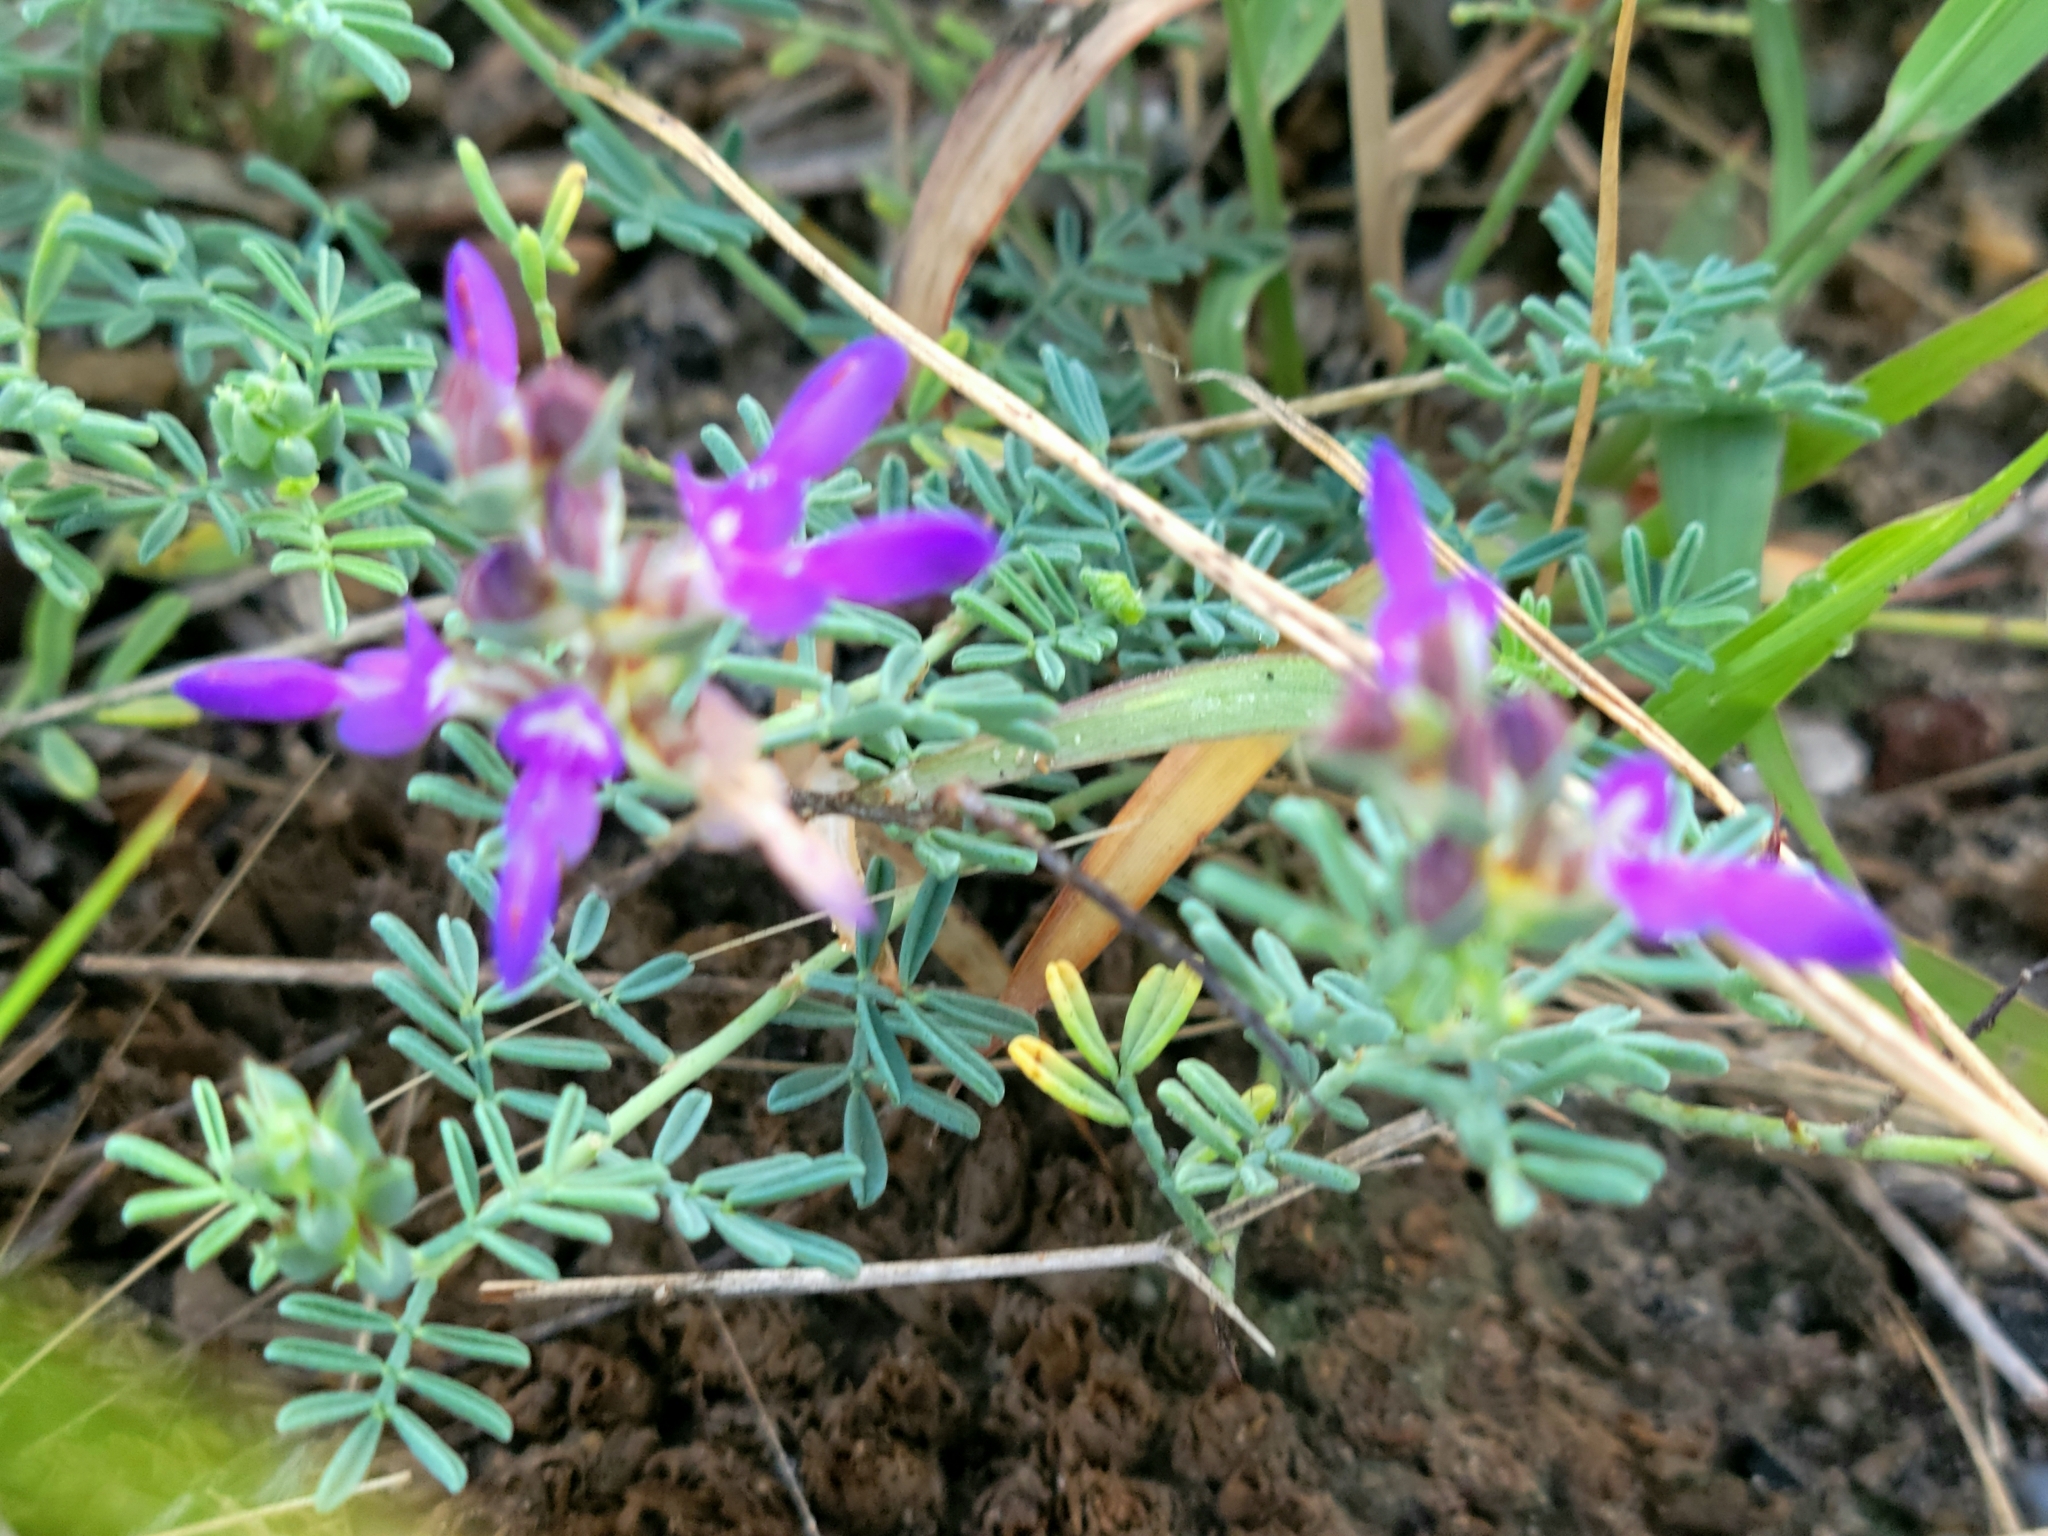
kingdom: Plantae
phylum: Tracheophyta
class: Magnoliopsida
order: Fabales
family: Fabaceae
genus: Dalea
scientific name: Dalea pogonathera
